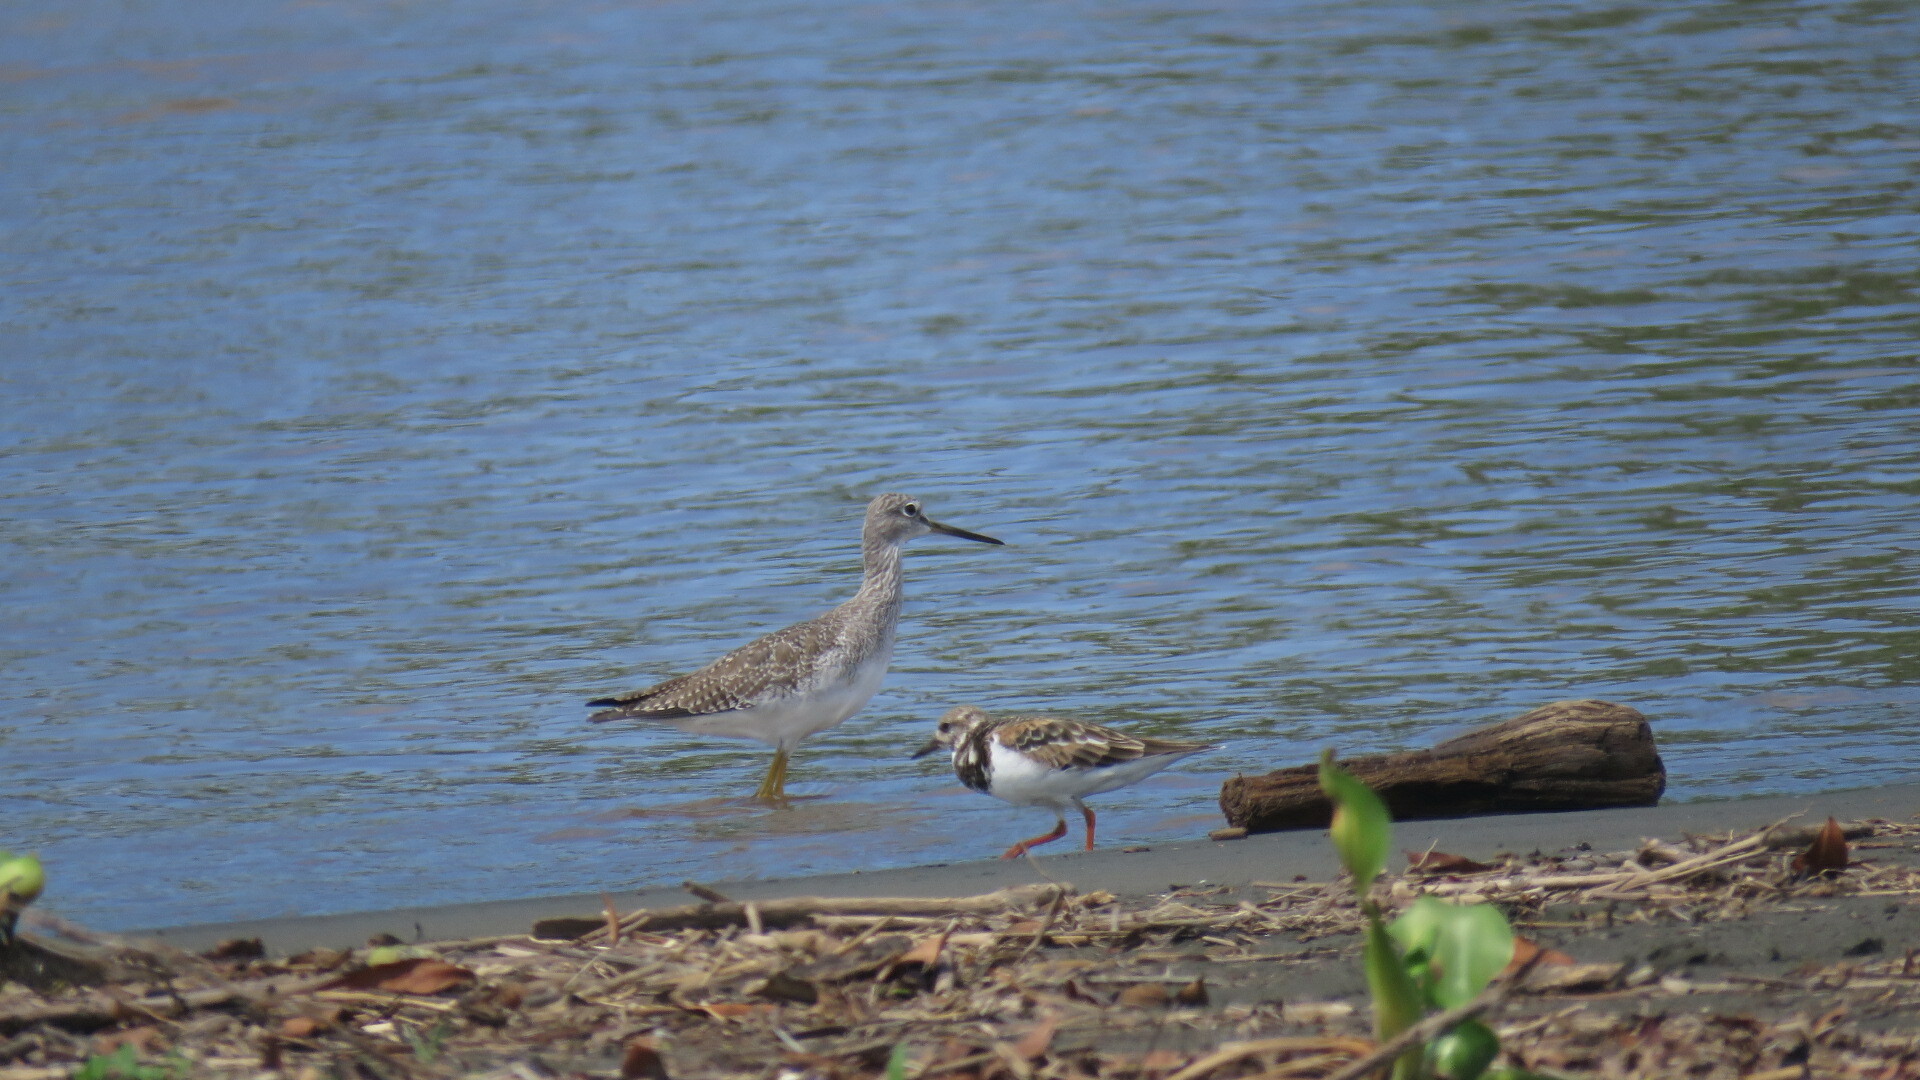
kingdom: Animalia
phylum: Chordata
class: Aves
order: Charadriiformes
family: Scolopacidae
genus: Tringa
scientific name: Tringa melanoleuca
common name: Greater yellowlegs
